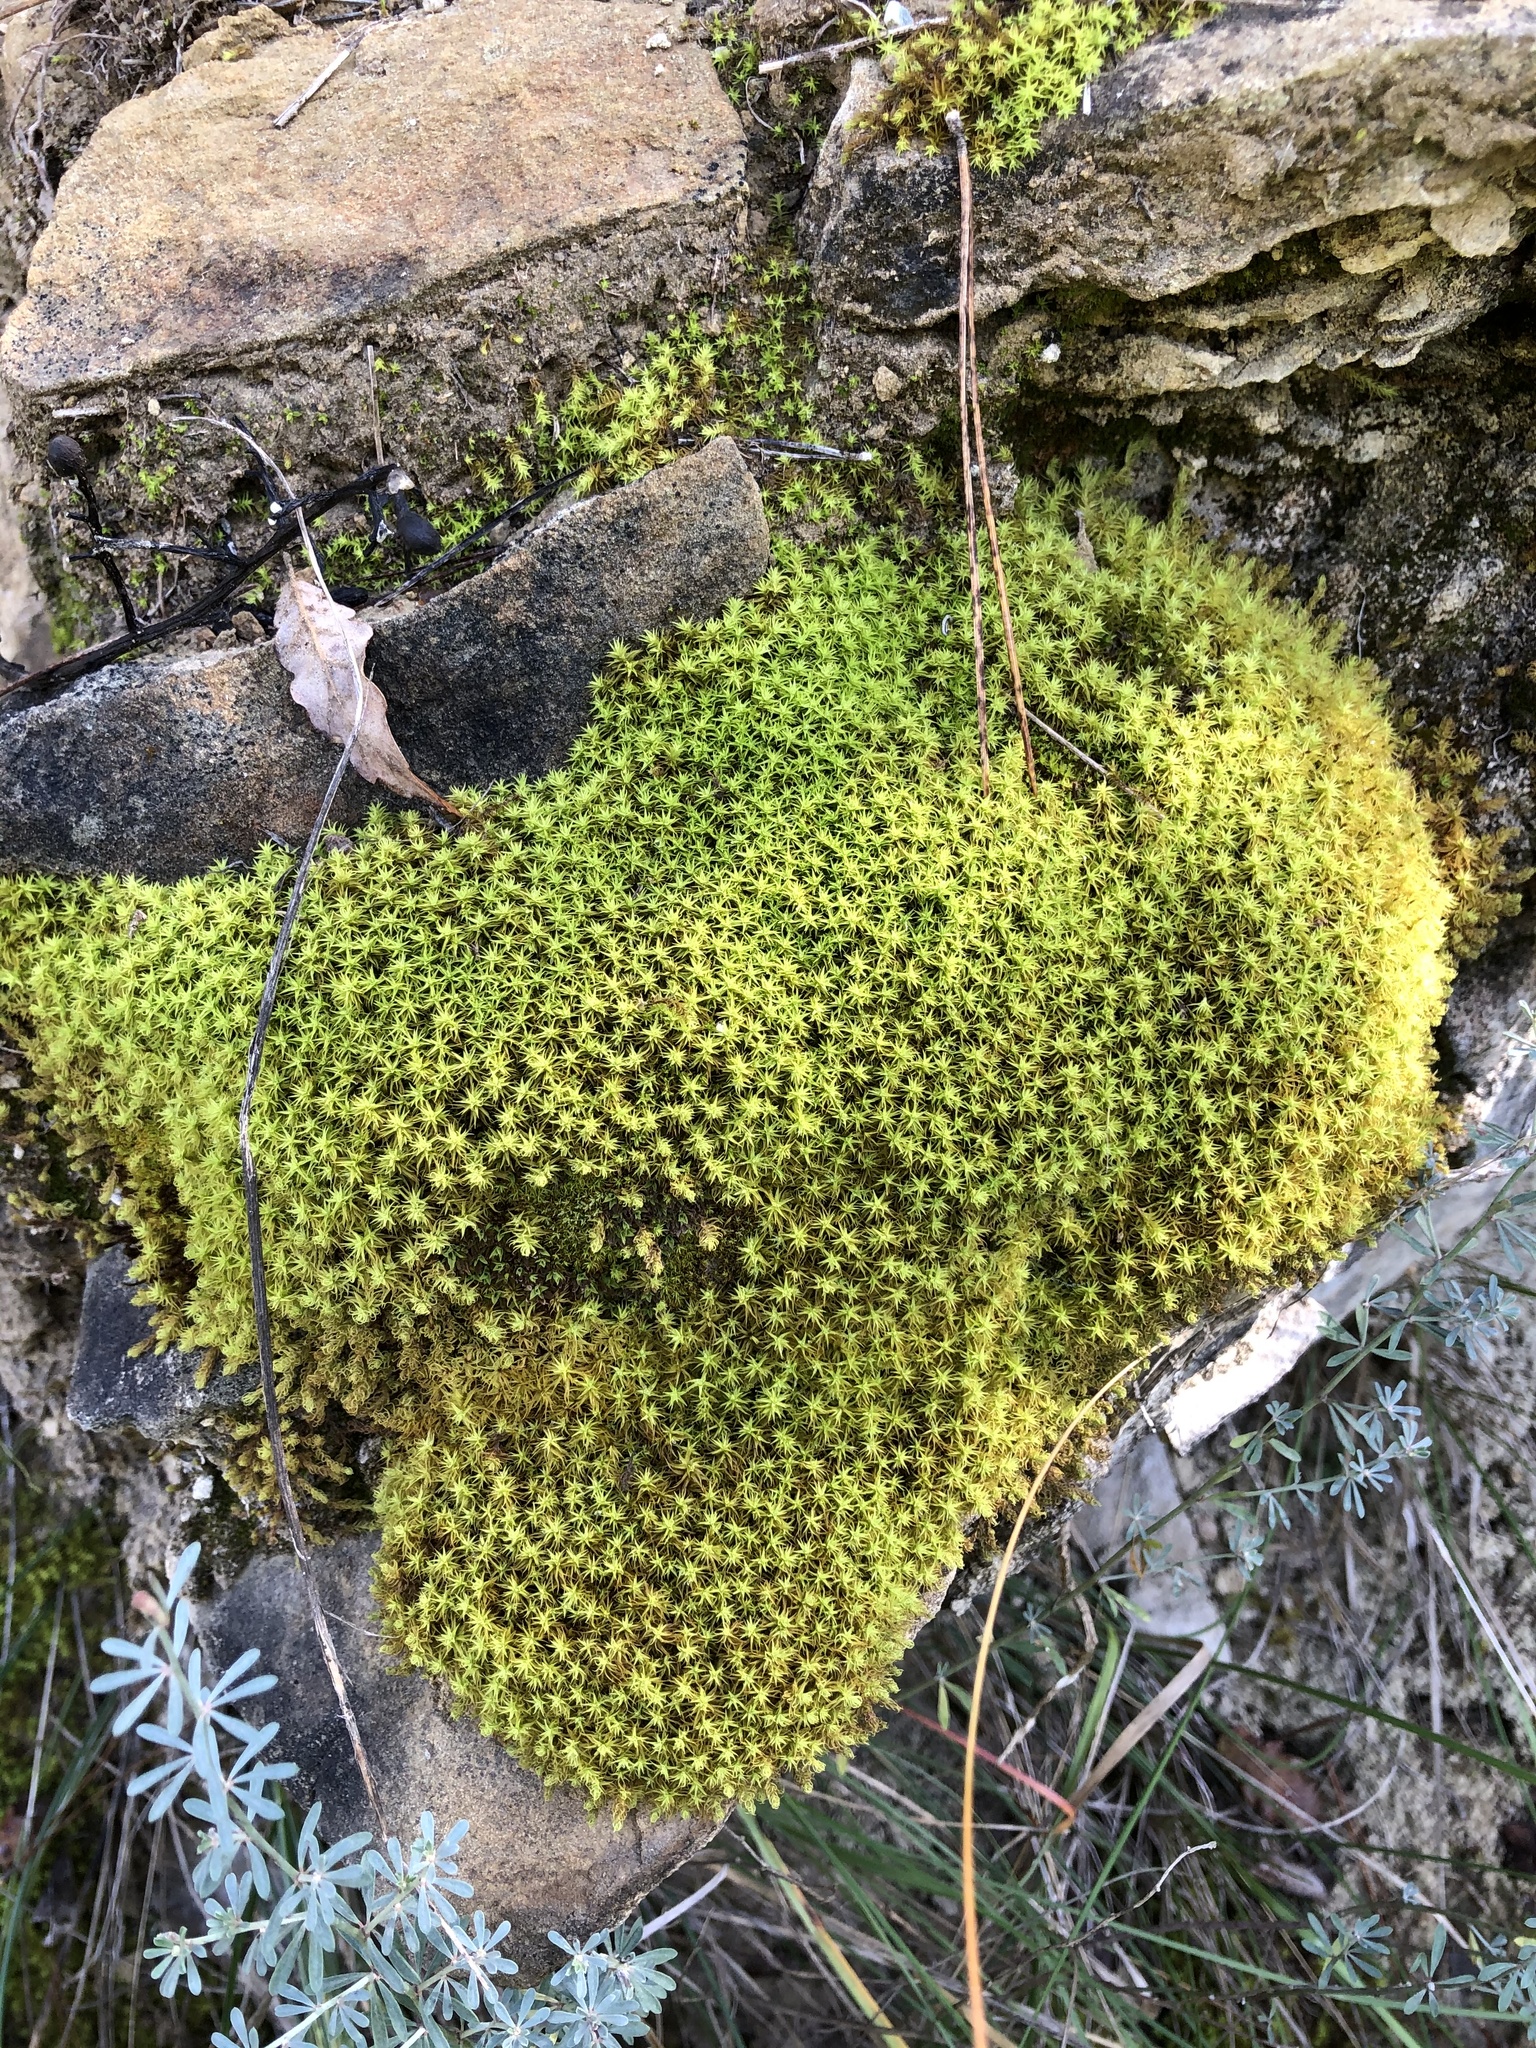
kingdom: Plantae
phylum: Bryophyta
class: Bryopsida
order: Pottiales
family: Pottiaceae
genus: Pleurochaete
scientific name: Pleurochaete squarrosa
